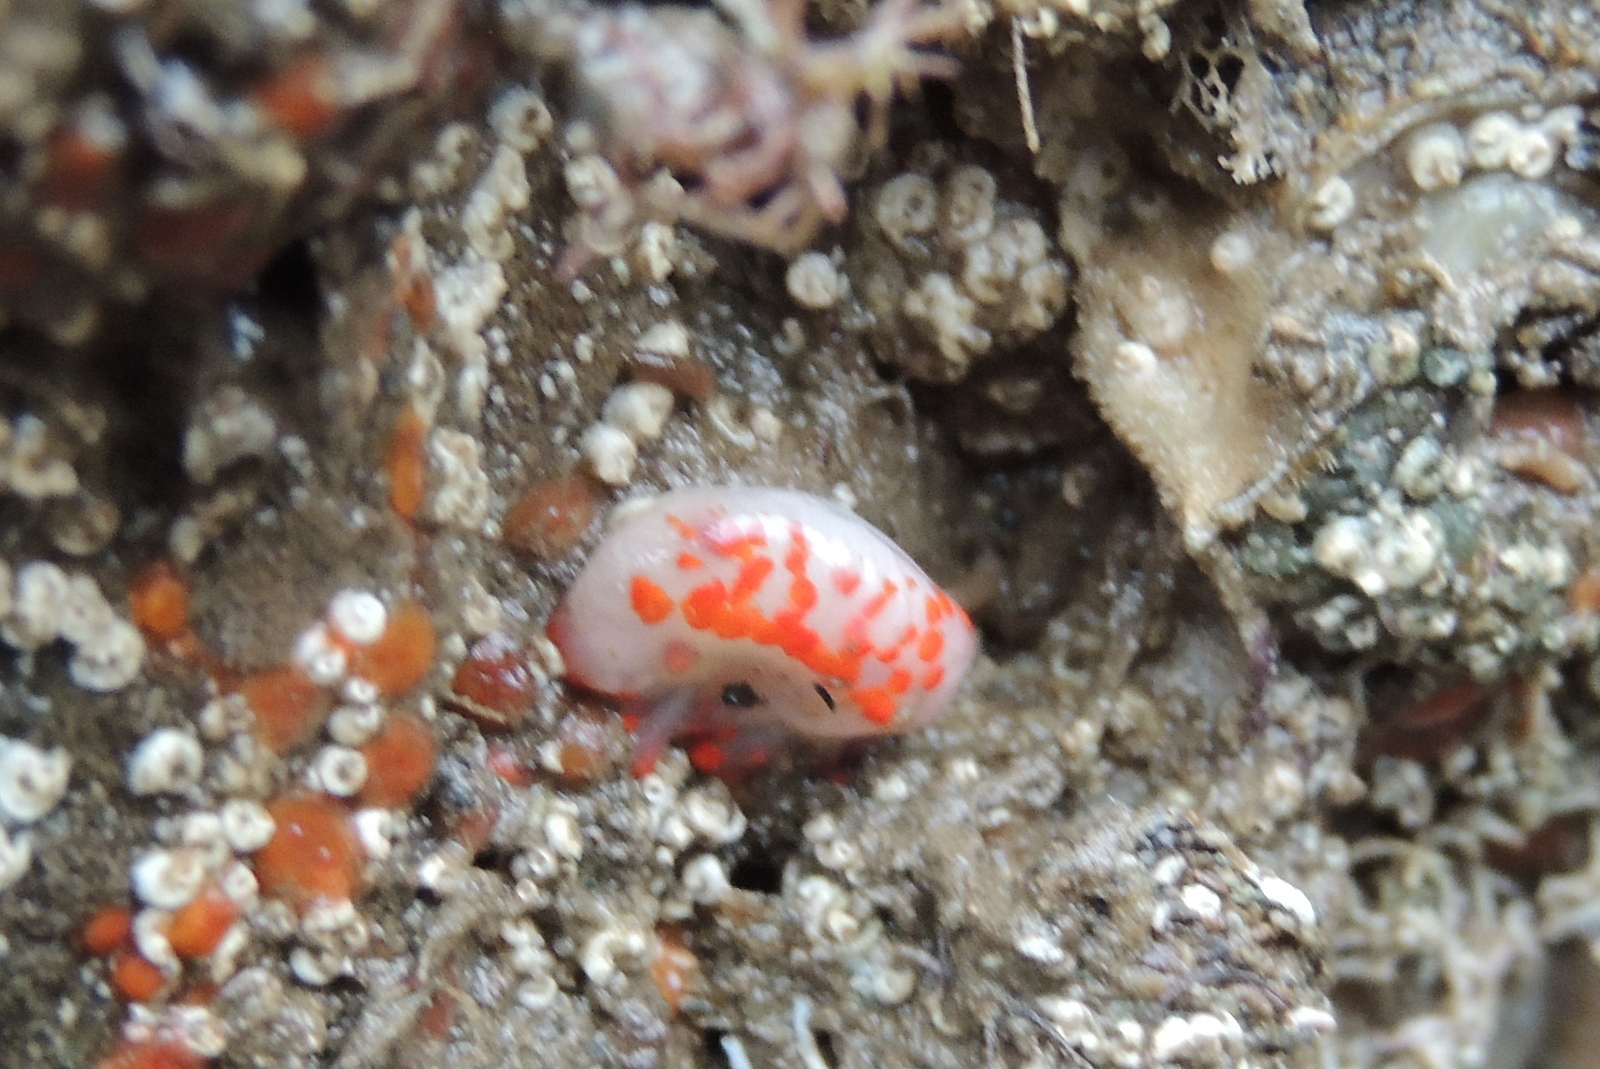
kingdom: Animalia
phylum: Mollusca
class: Gastropoda
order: Nudibranchia
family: Polyceridae
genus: Limacia
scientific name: Limacia mcdonaldi
